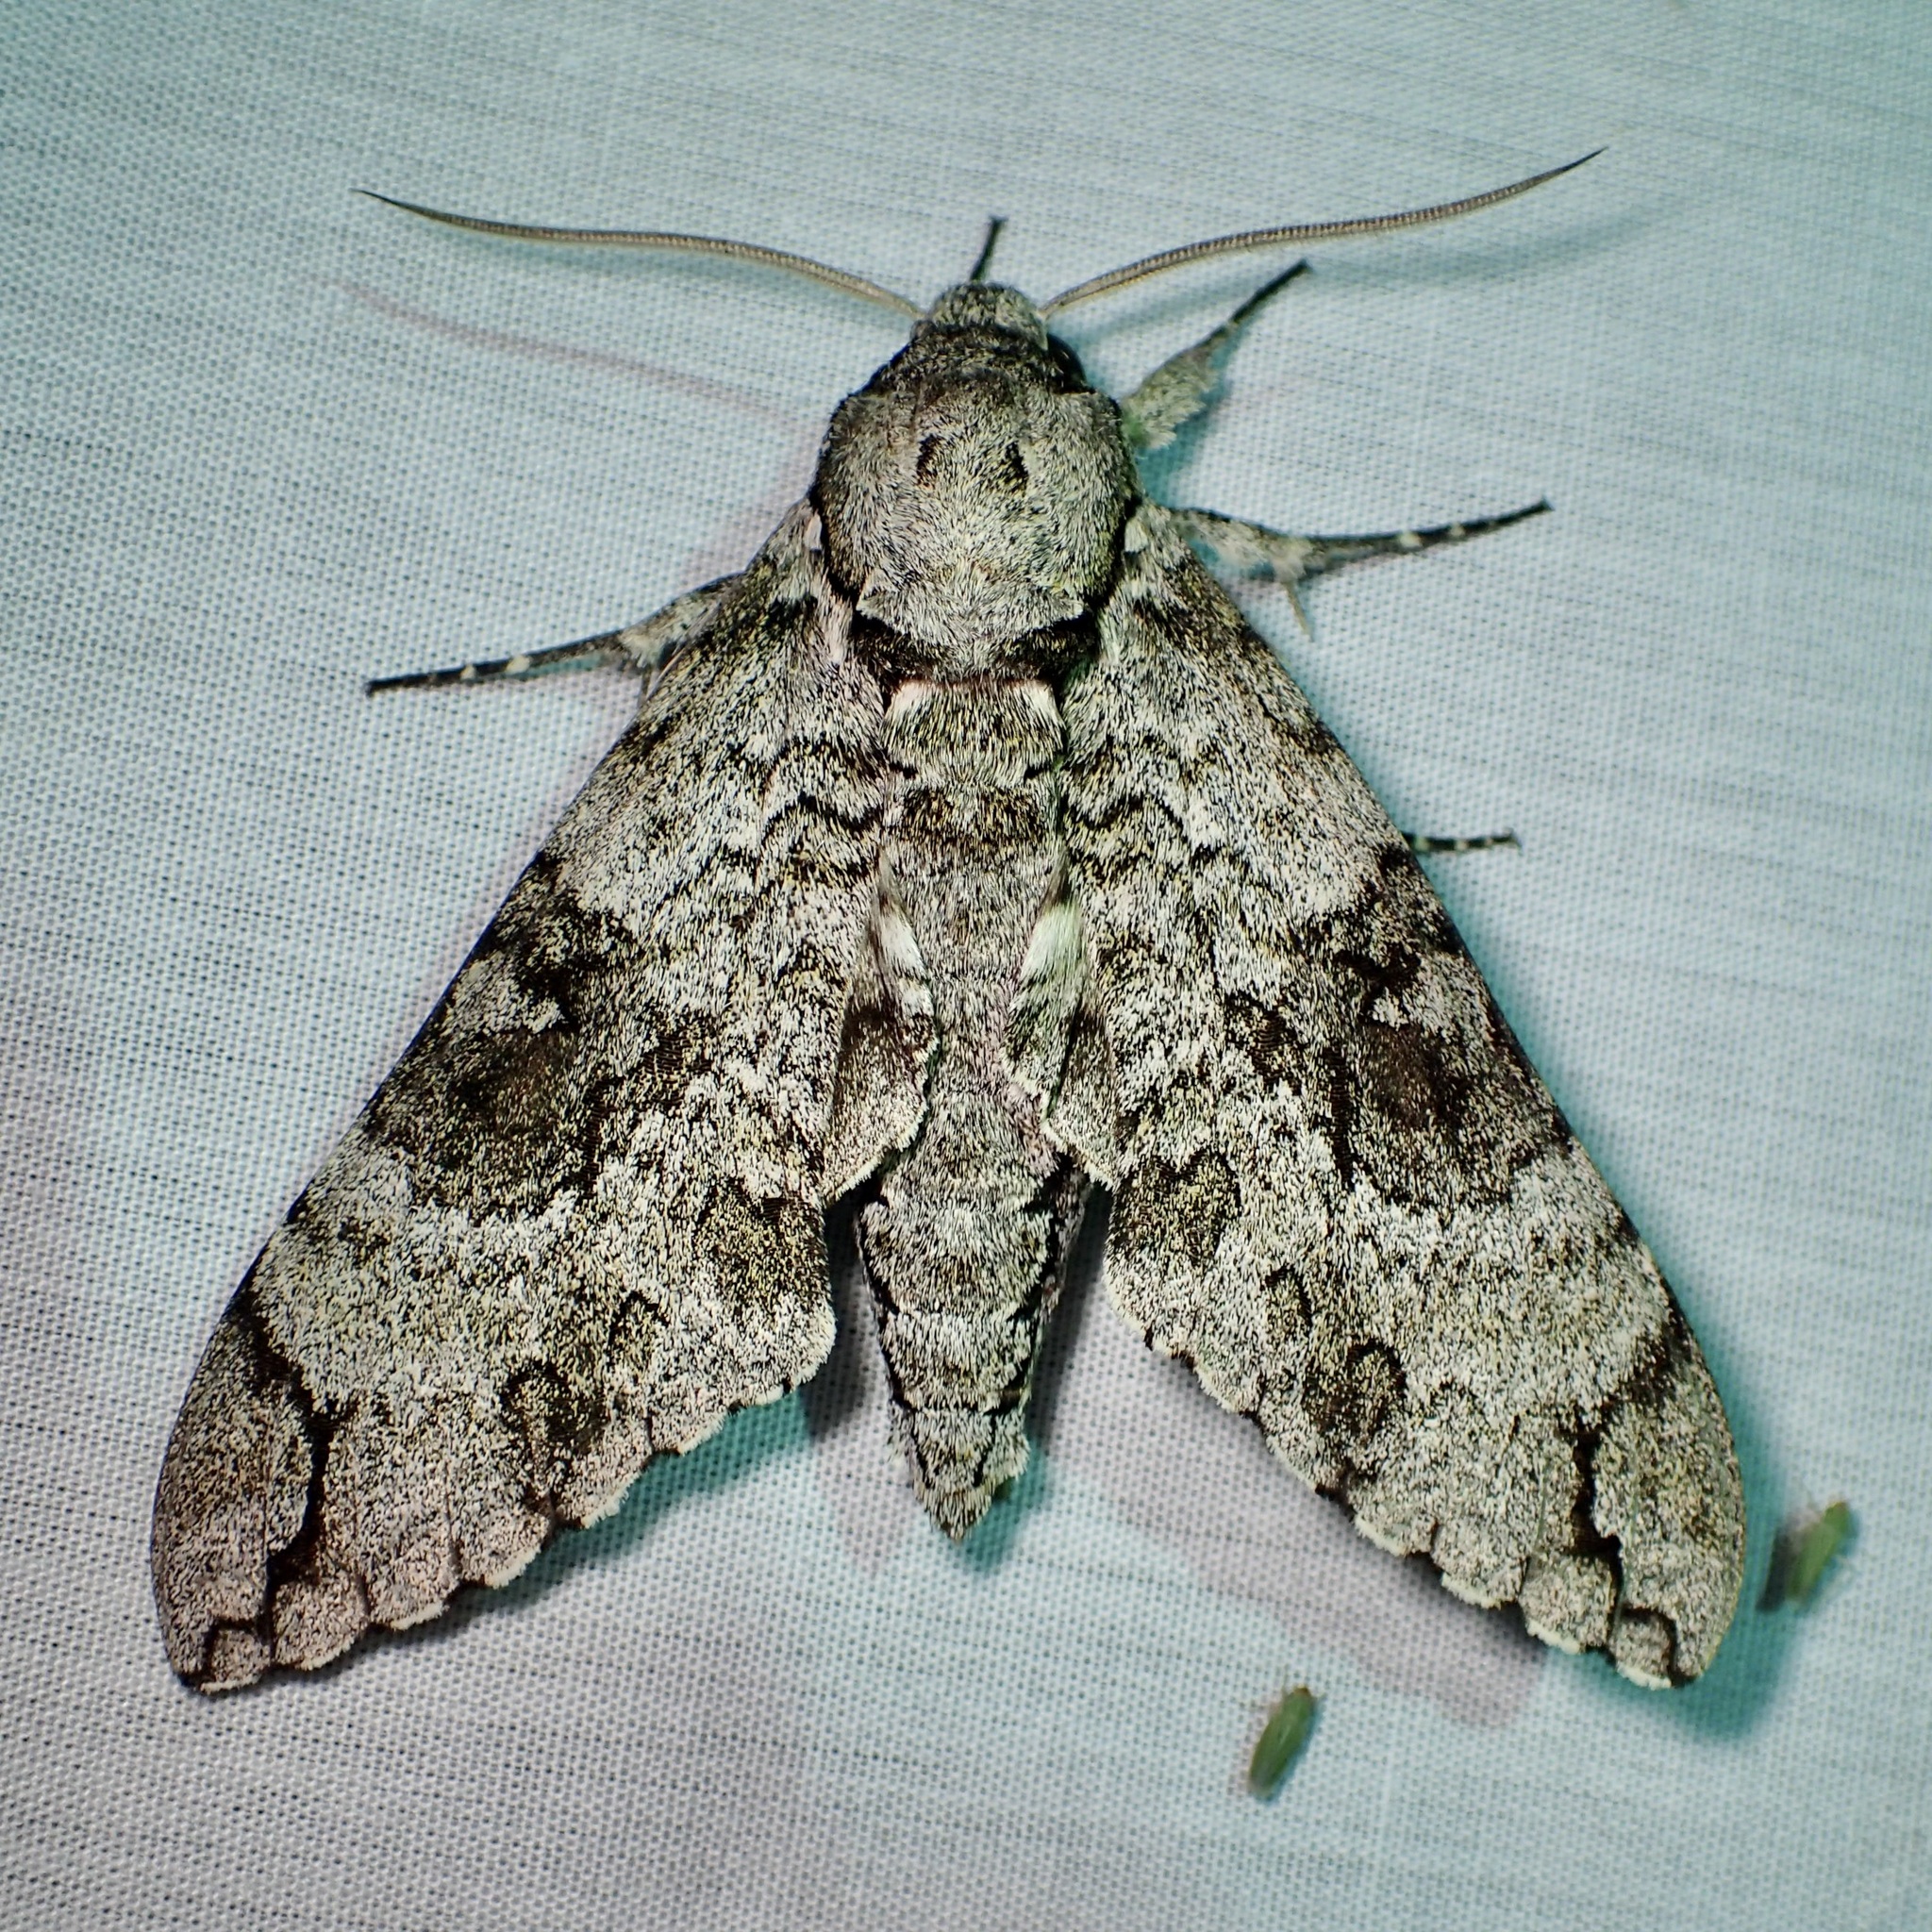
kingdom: Animalia
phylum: Arthropoda
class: Insecta
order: Lepidoptera
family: Sphingidae
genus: Manduca
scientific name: Manduca florestan
